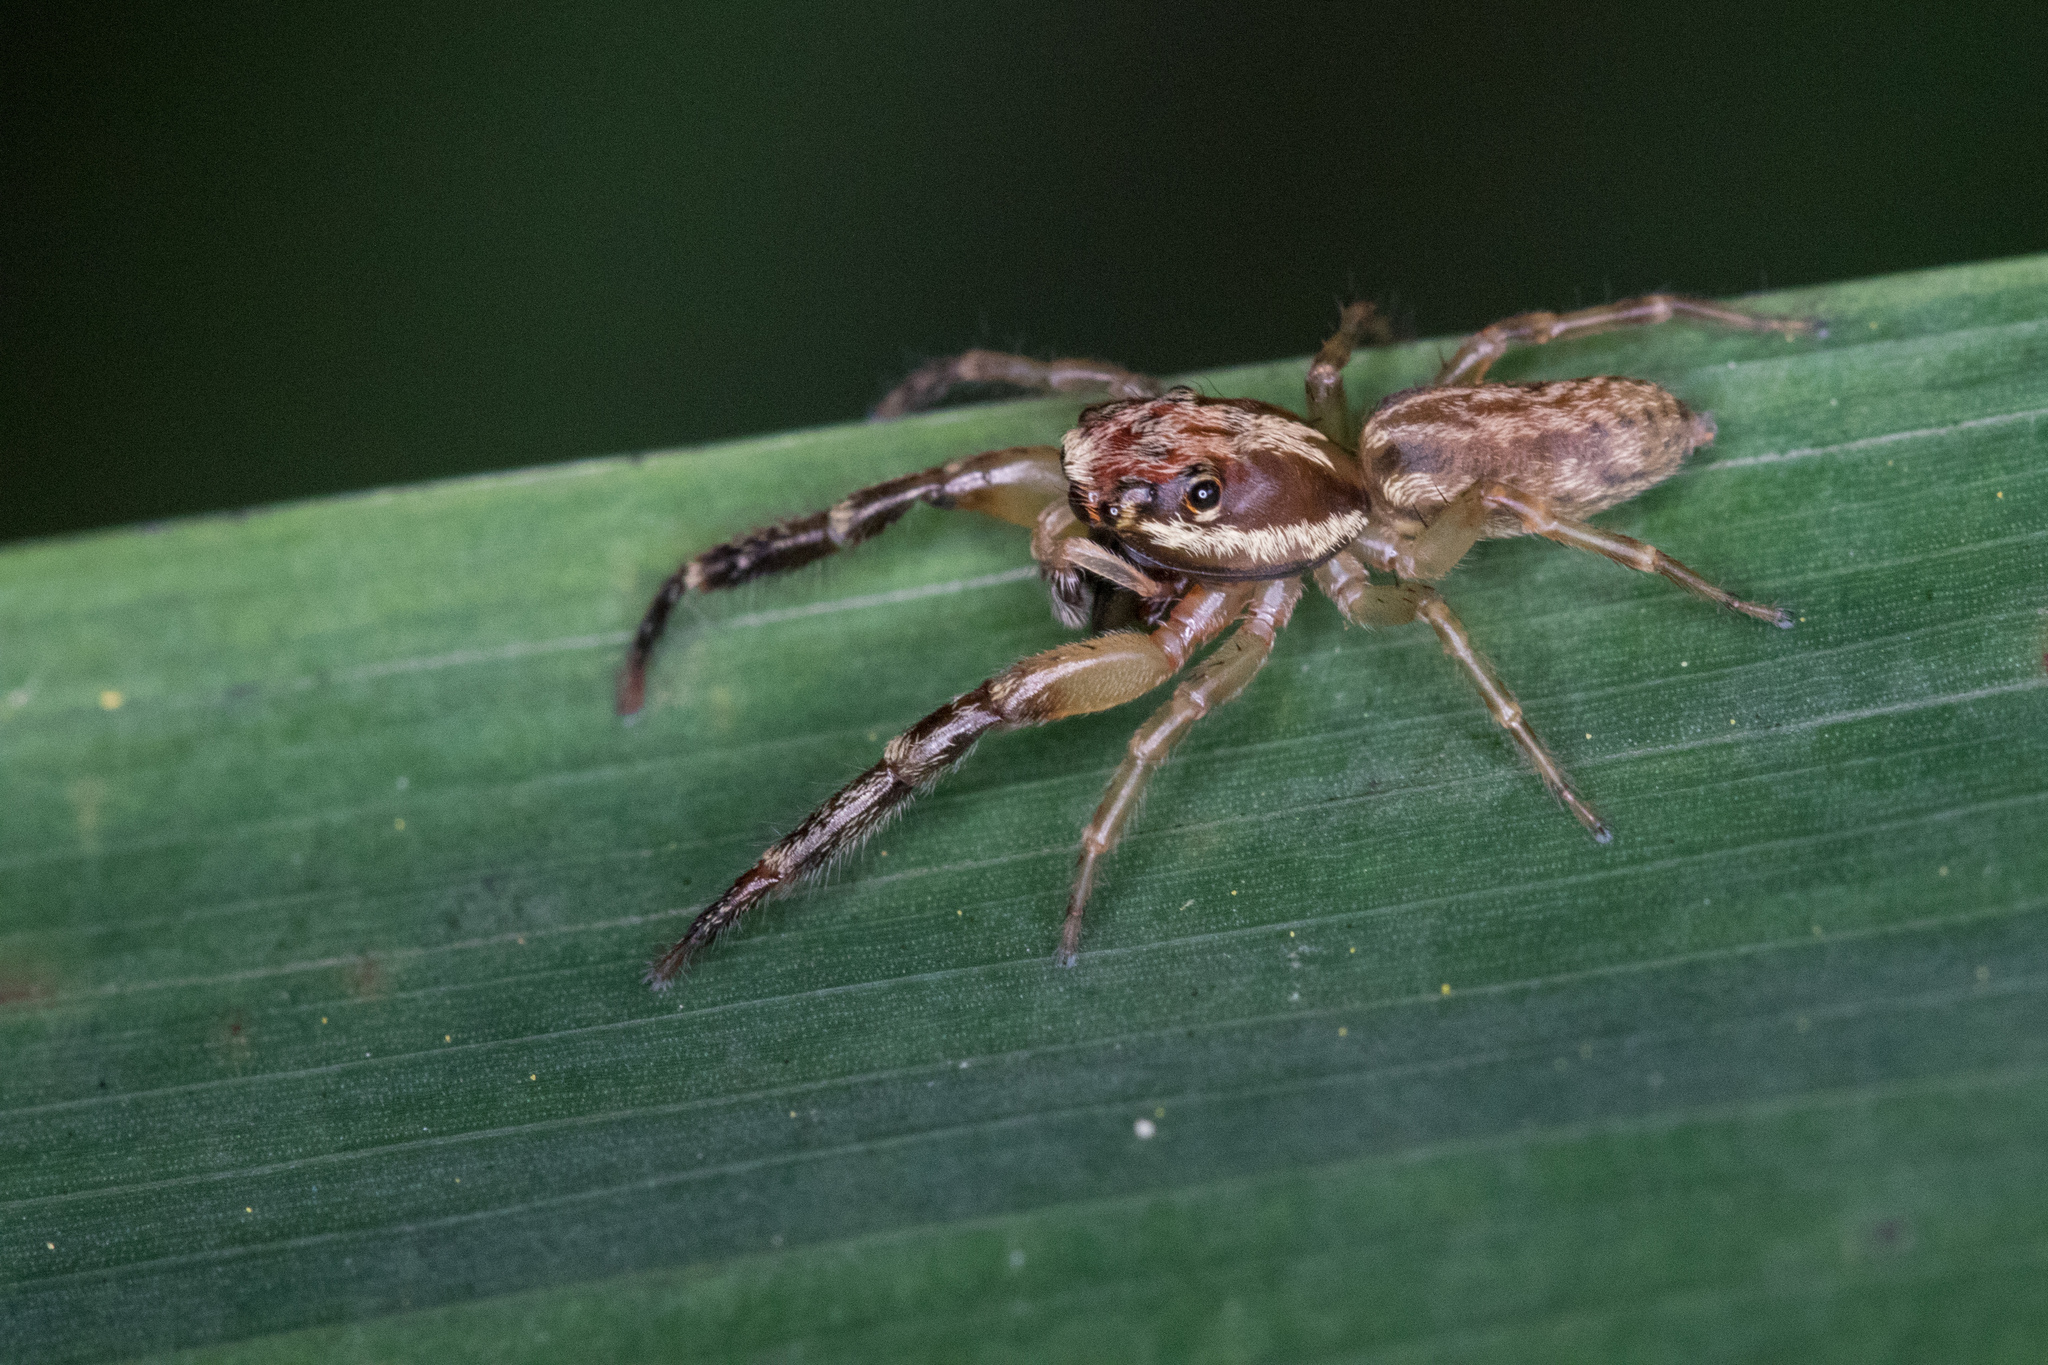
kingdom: Animalia
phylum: Arthropoda
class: Arachnida
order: Araneae
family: Salticidae
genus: Trite
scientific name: Trite mustilina
